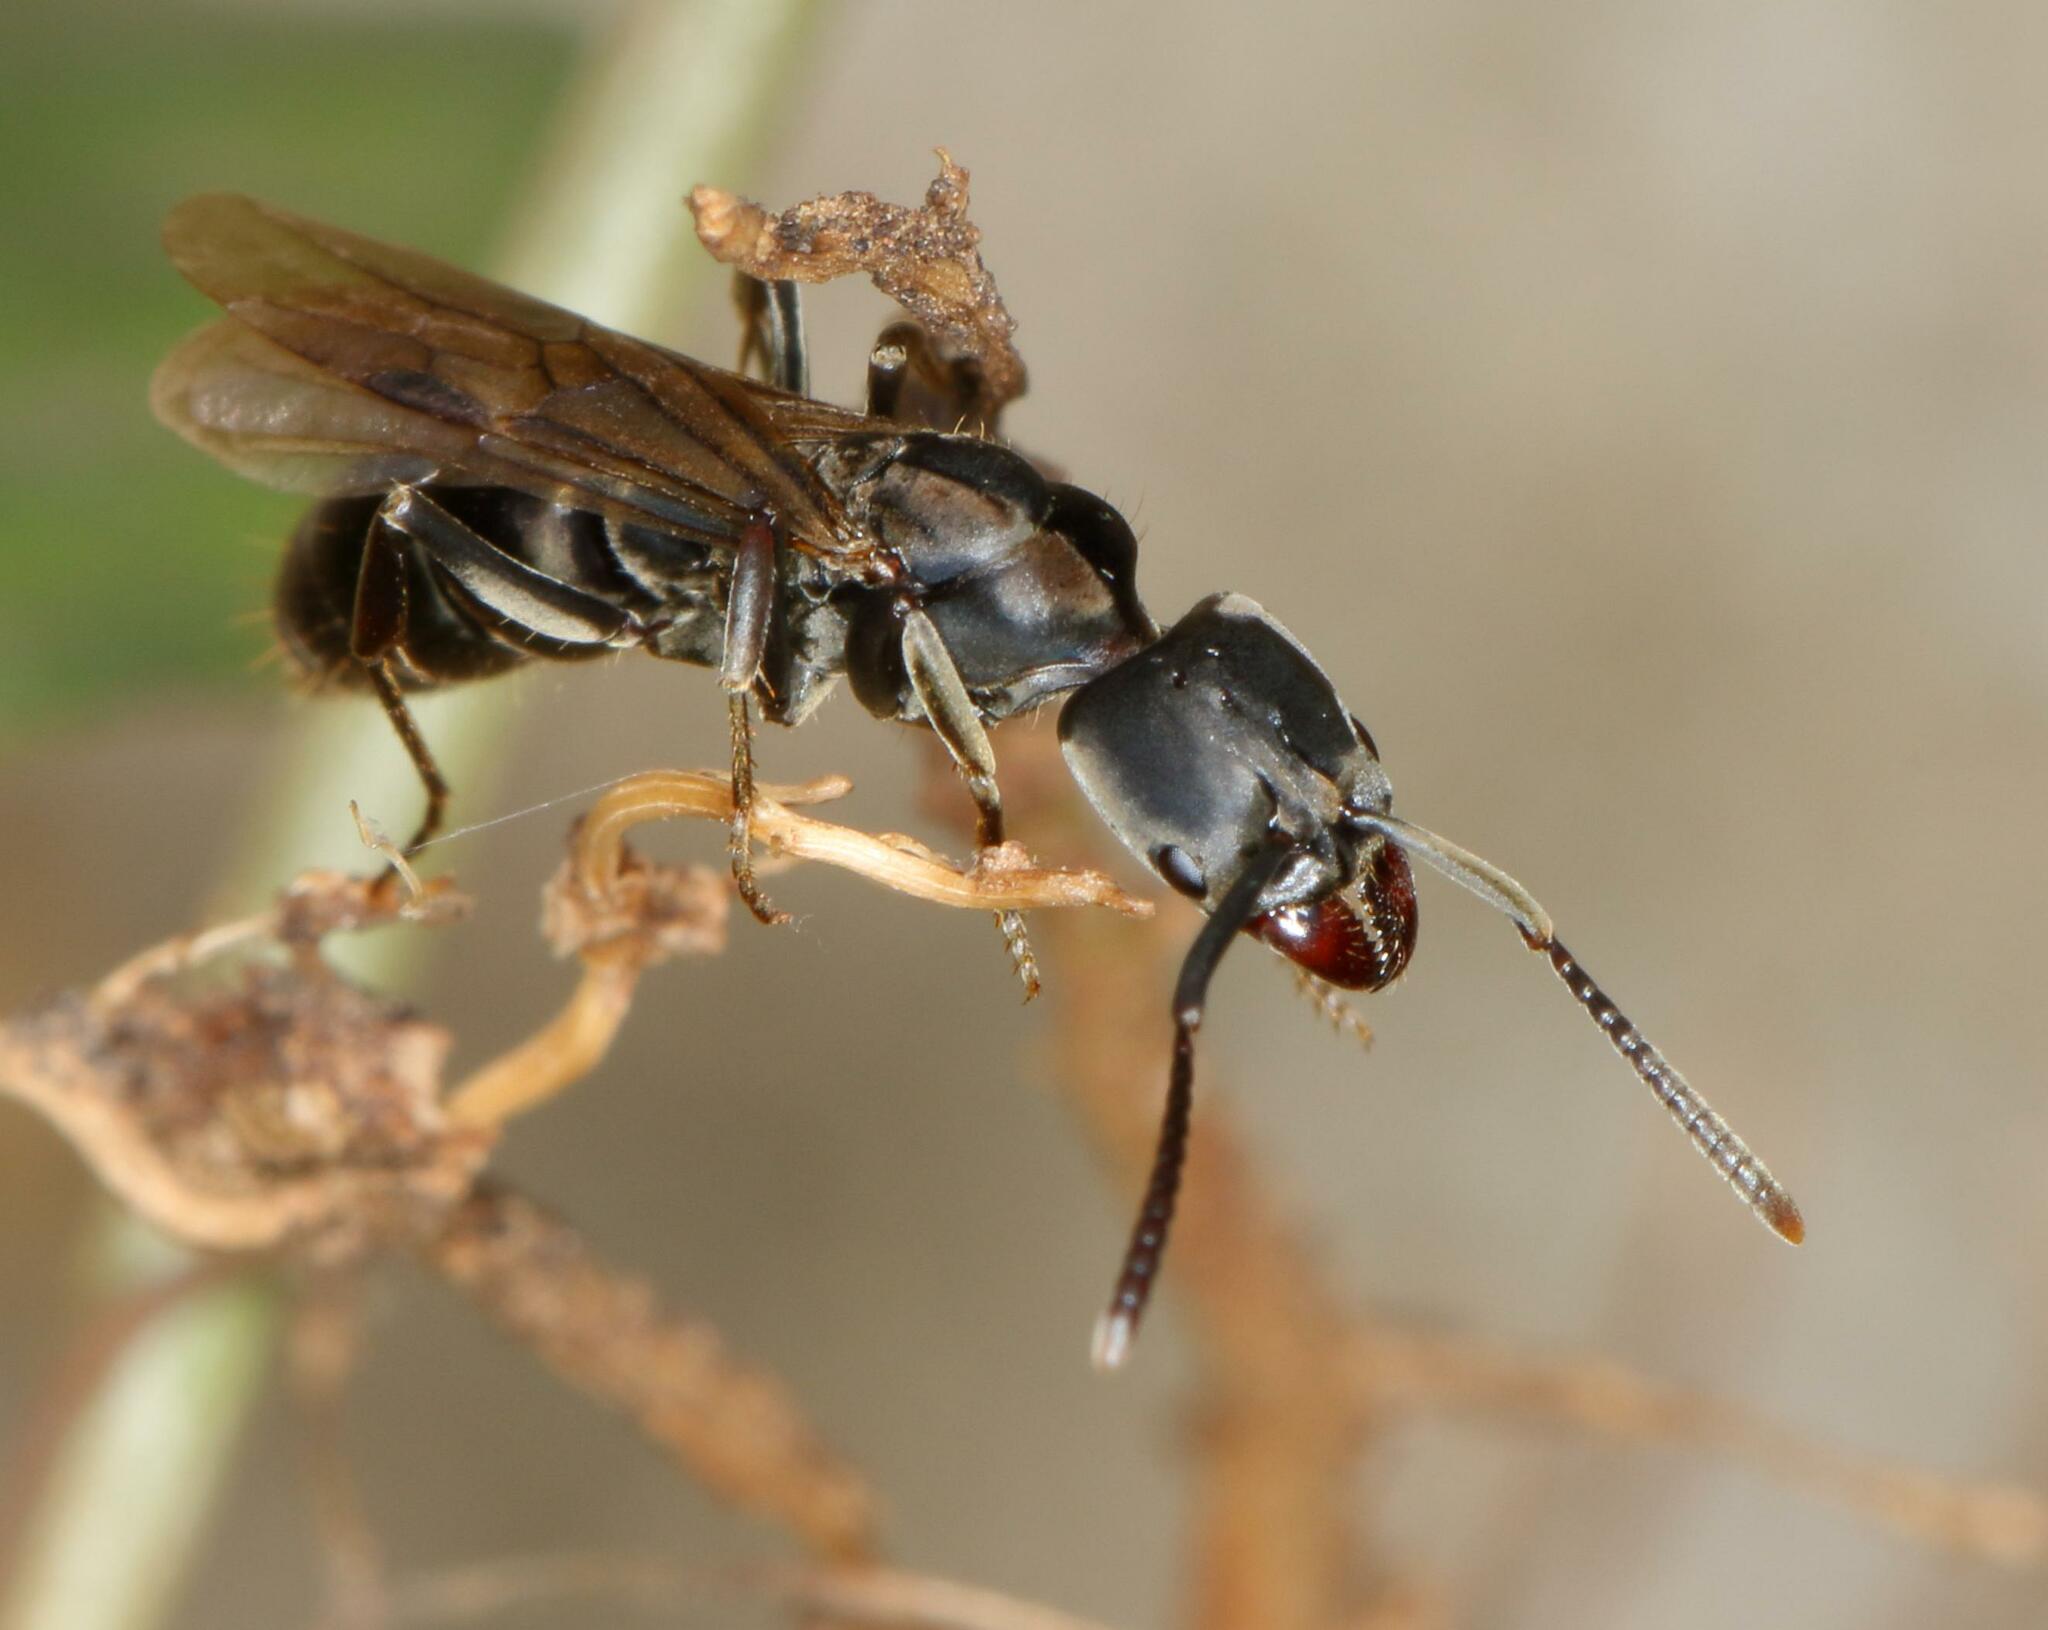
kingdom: Animalia
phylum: Arthropoda
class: Insecta
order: Hymenoptera
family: Formicidae
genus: Mesoponera
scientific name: Mesoponera caffraria
